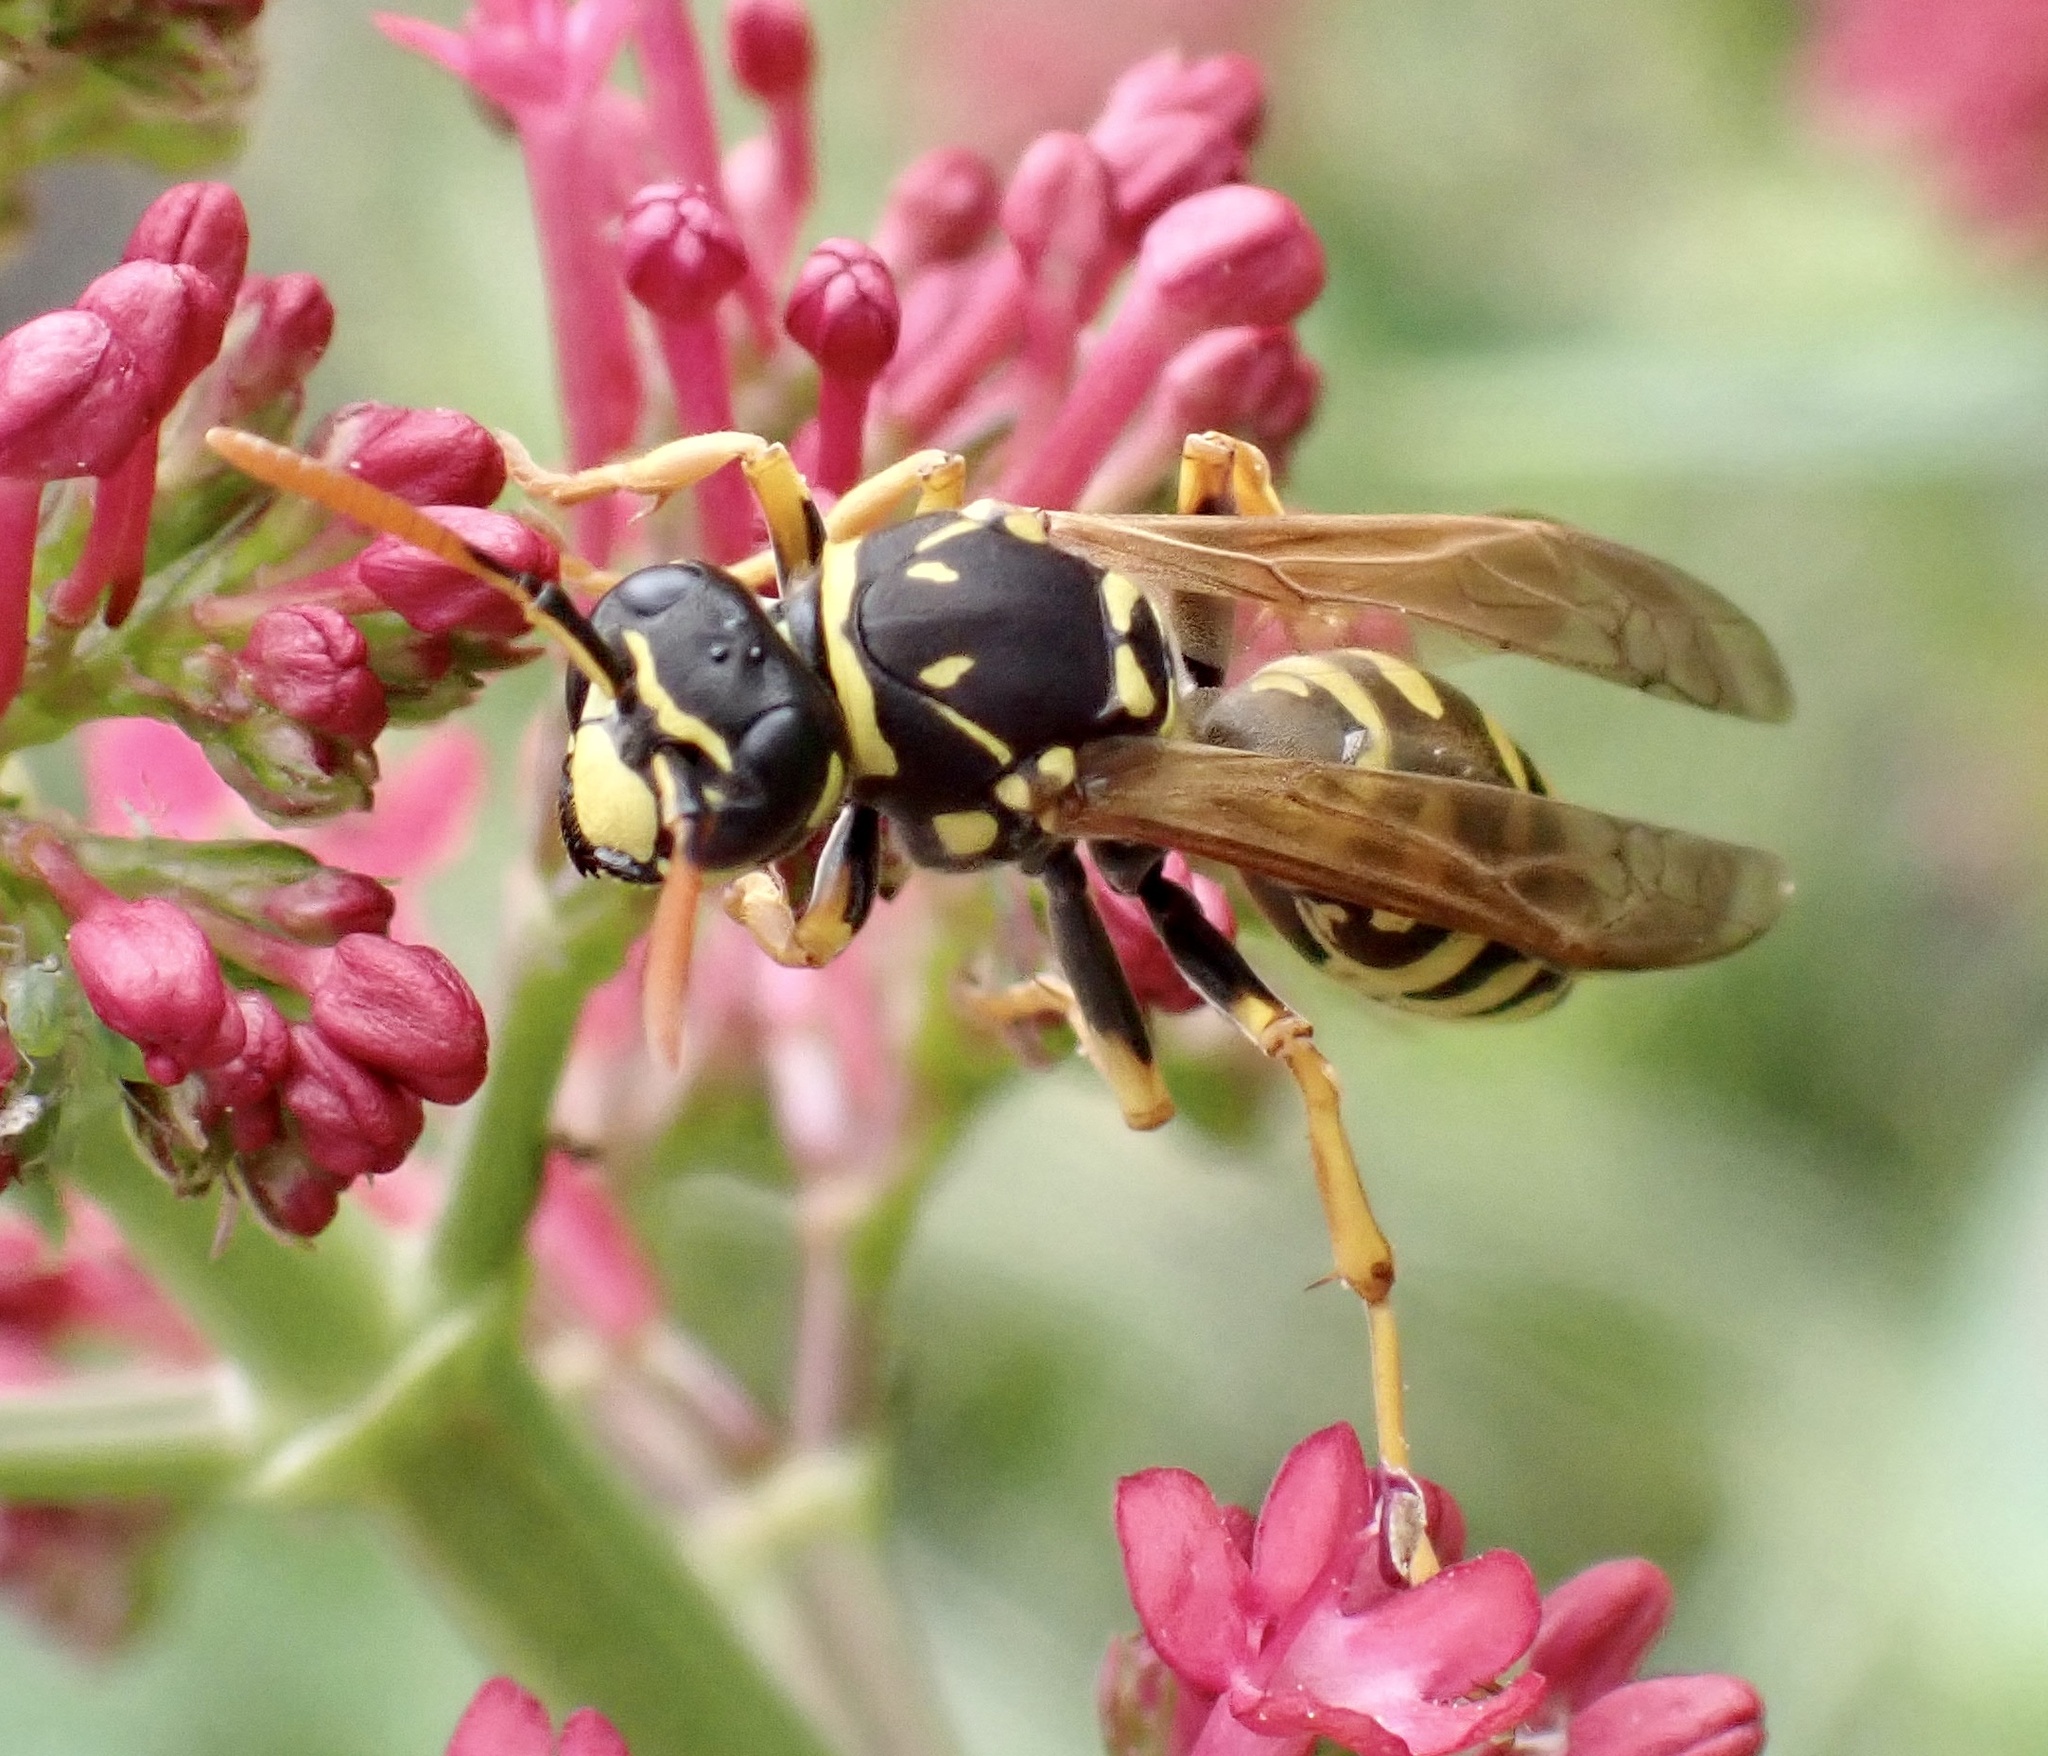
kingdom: Animalia
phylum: Arthropoda
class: Insecta
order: Hymenoptera
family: Eumenidae
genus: Polistes
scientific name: Polistes dominula
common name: Paper wasp
